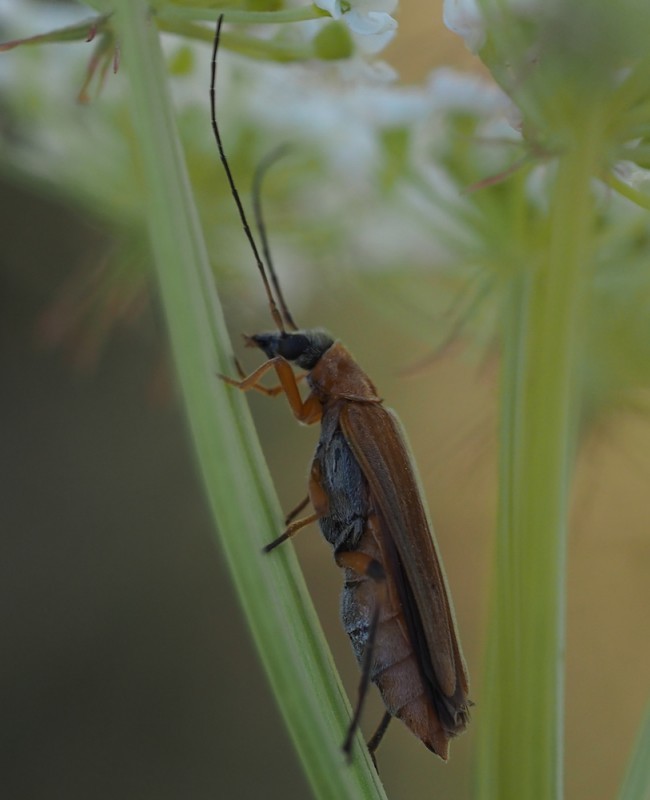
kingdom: Animalia
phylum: Arthropoda
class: Insecta
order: Coleoptera
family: Oedemeridae
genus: Oedemera
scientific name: Oedemera podagrariae
